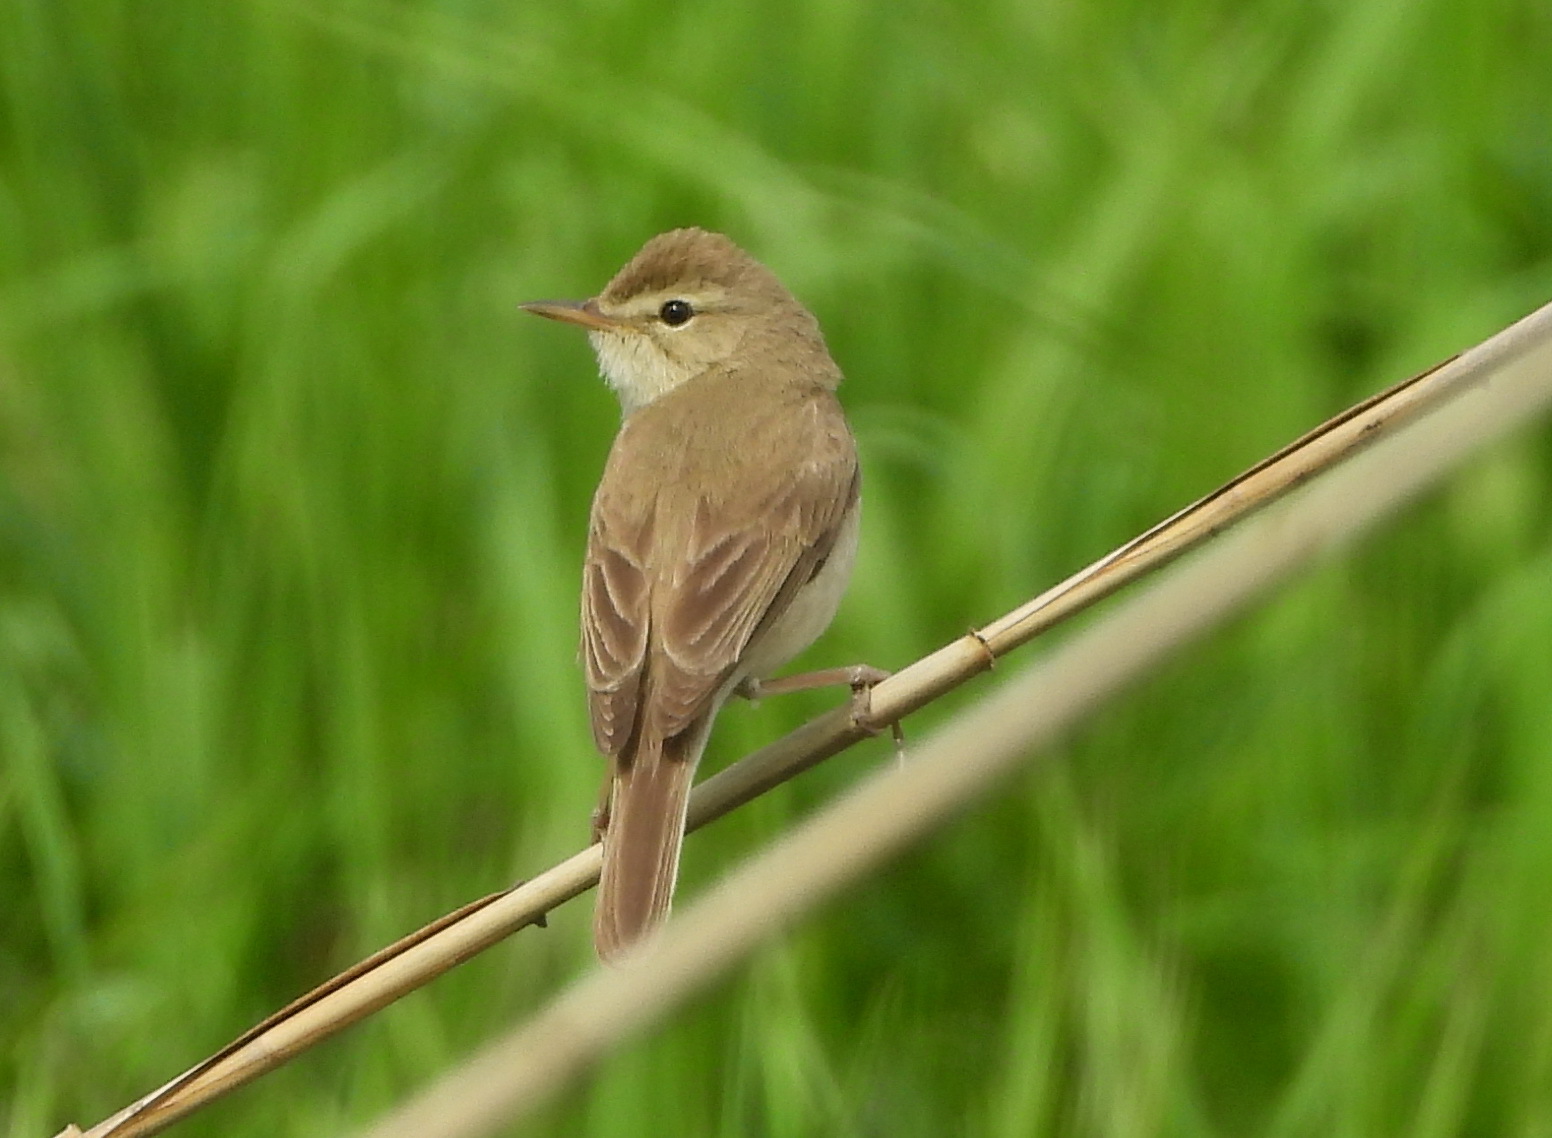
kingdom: Animalia
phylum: Chordata
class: Aves
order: Passeriformes
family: Acrocephalidae
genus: Iduna
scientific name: Iduna caligata
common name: Booted warbler
